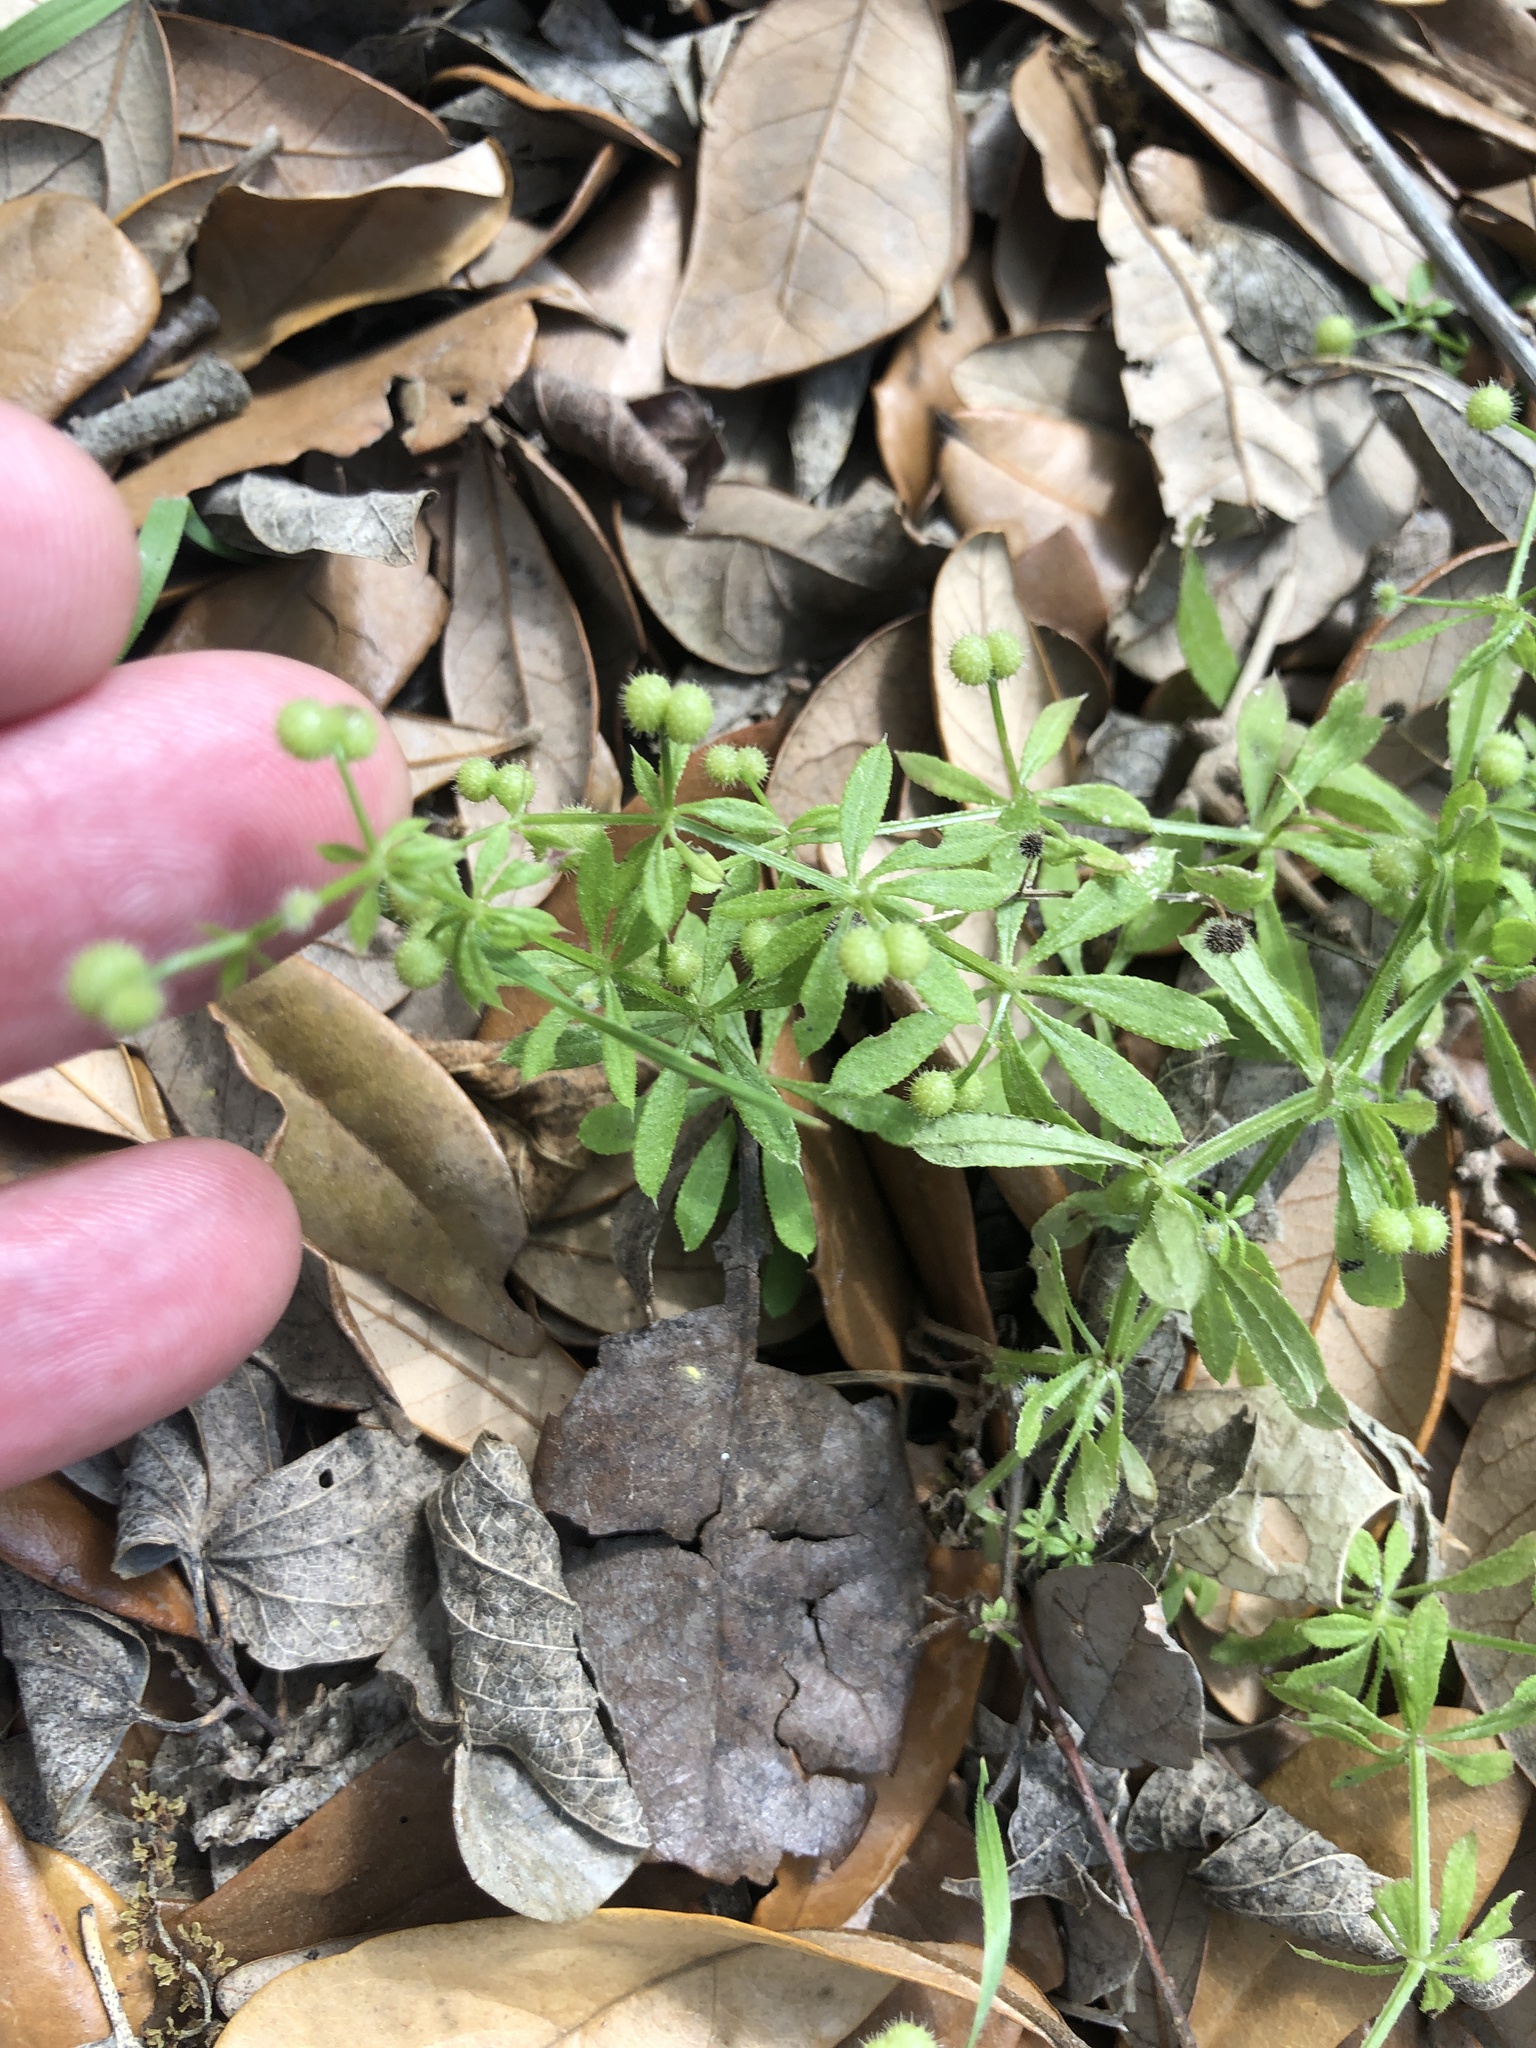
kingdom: Plantae
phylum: Tracheophyta
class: Magnoliopsida
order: Gentianales
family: Rubiaceae
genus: Galium
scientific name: Galium aparine
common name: Cleavers
